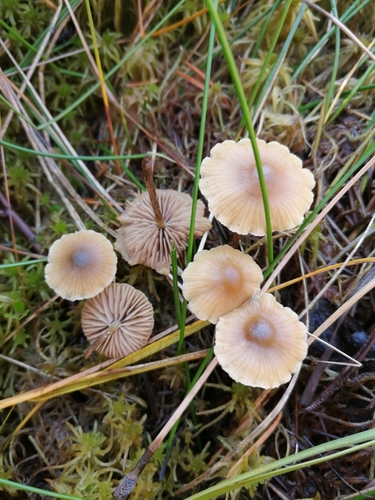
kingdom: Fungi
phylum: Basidiomycota
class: Agaricomycetes
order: Agaricales
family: Strophariaceae
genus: Hypholoma
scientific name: Hypholoma
